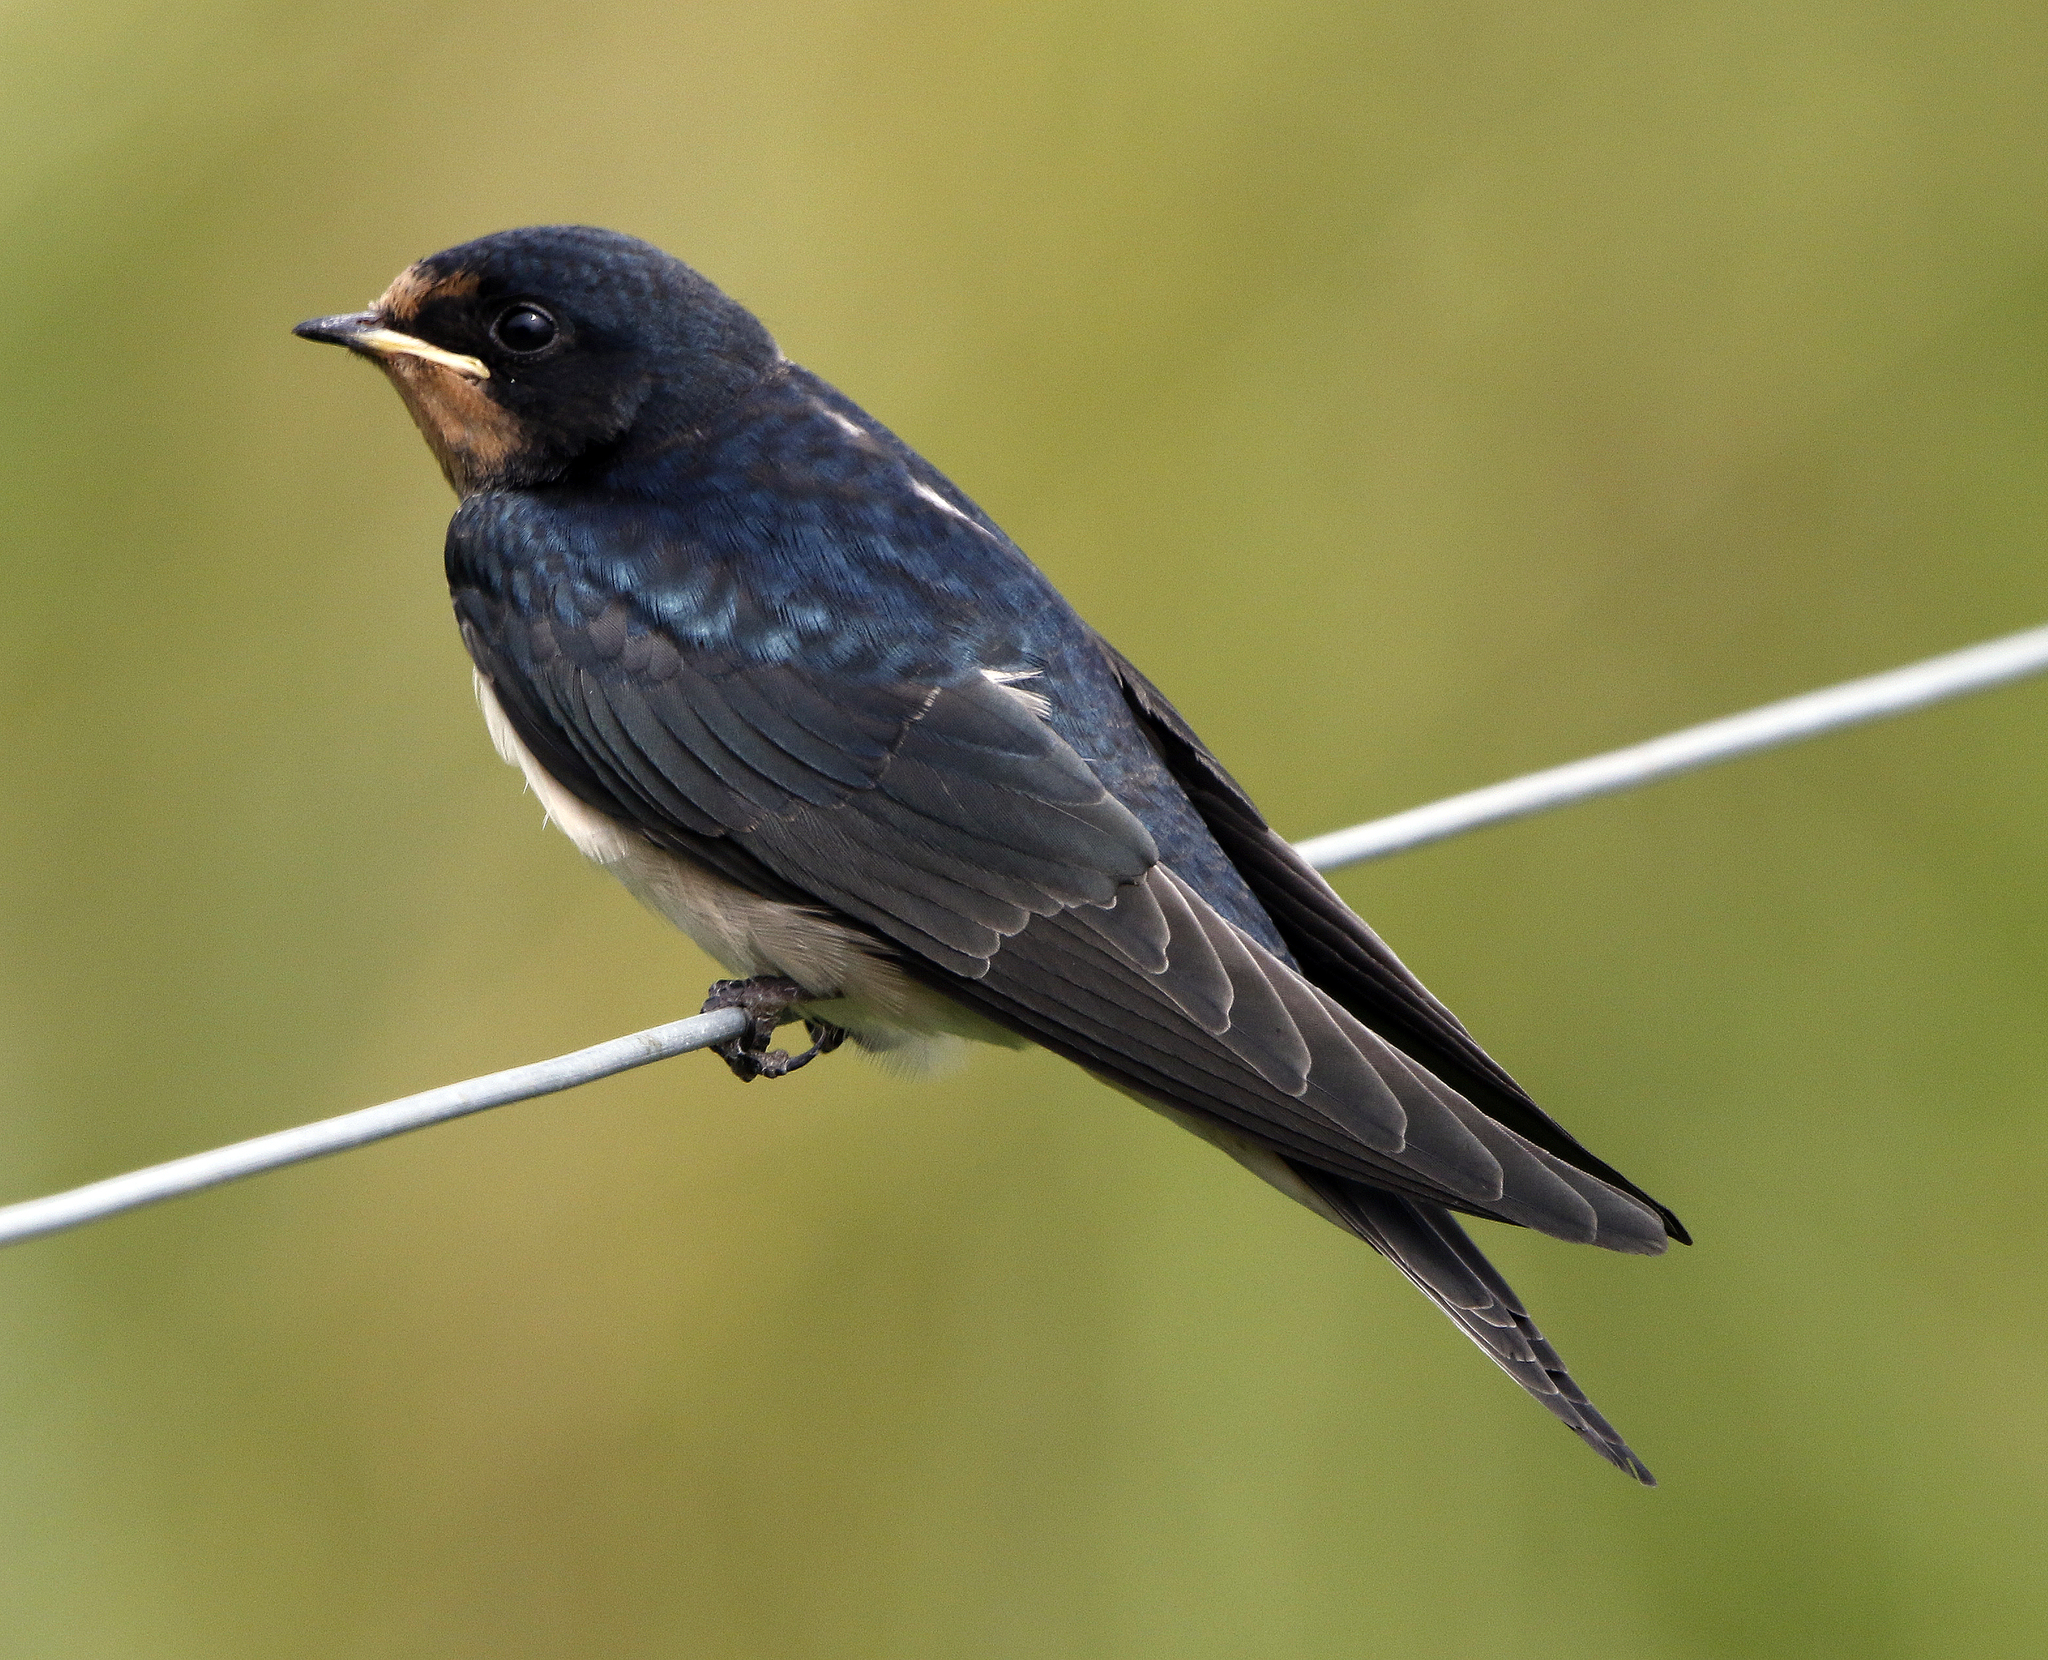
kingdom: Animalia
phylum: Chordata
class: Aves
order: Passeriformes
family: Hirundinidae
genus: Hirundo
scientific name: Hirundo rustica
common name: Barn swallow
